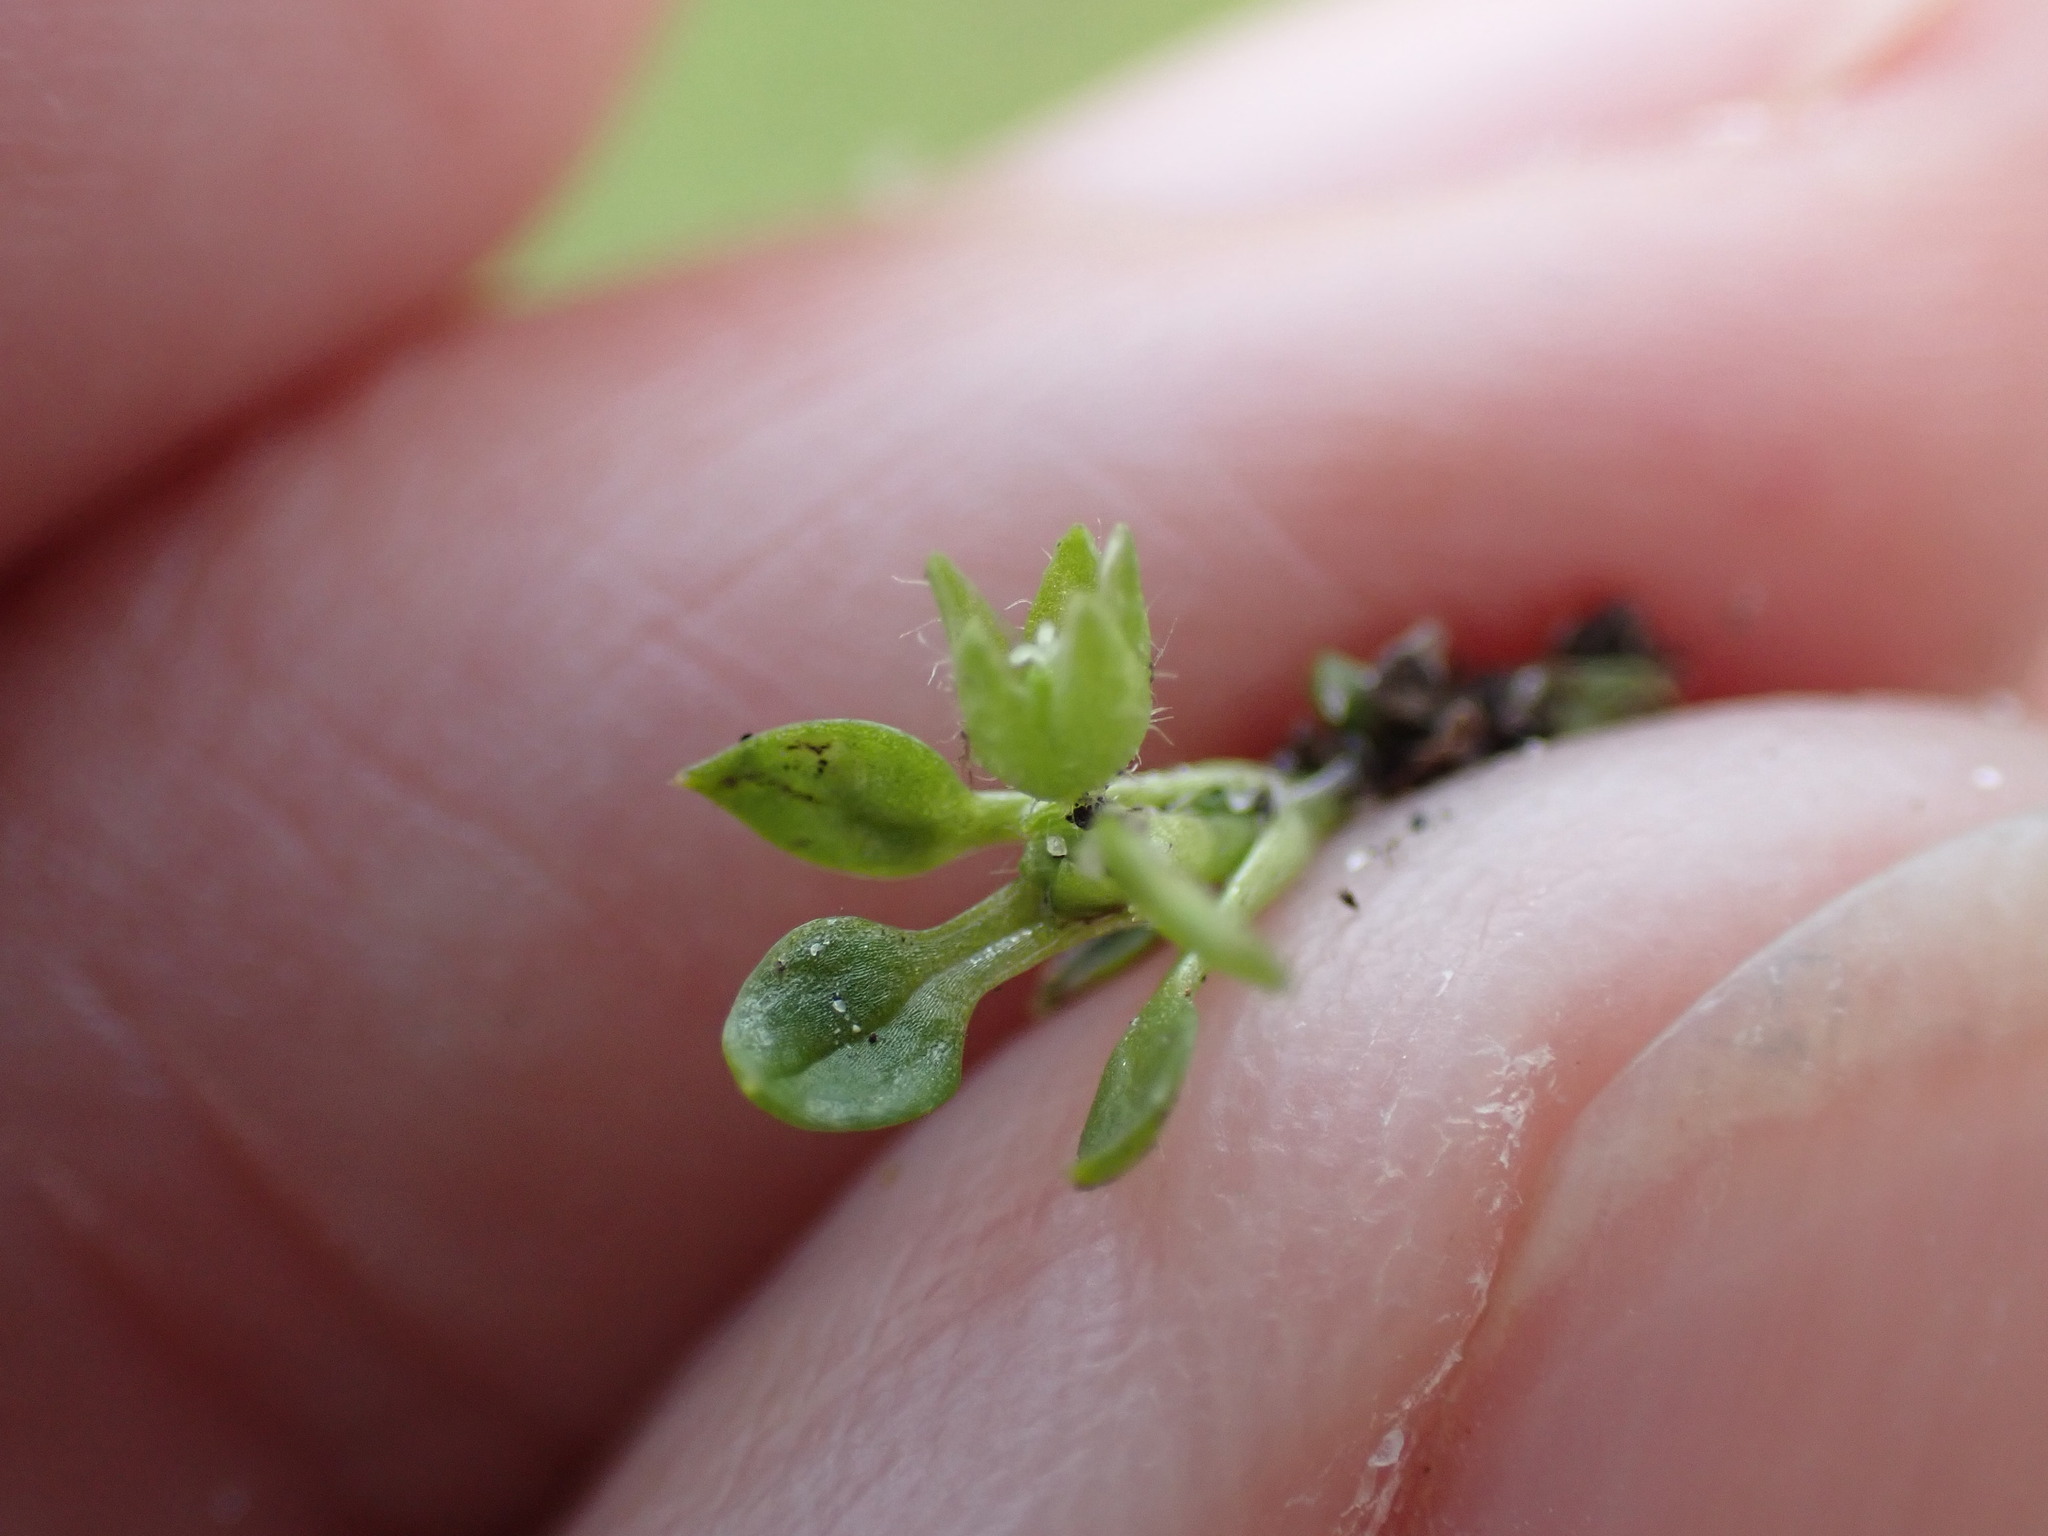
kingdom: Plantae
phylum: Tracheophyta
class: Magnoliopsida
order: Caryophyllales
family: Caryophyllaceae
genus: Stellaria
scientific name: Stellaria apetala
